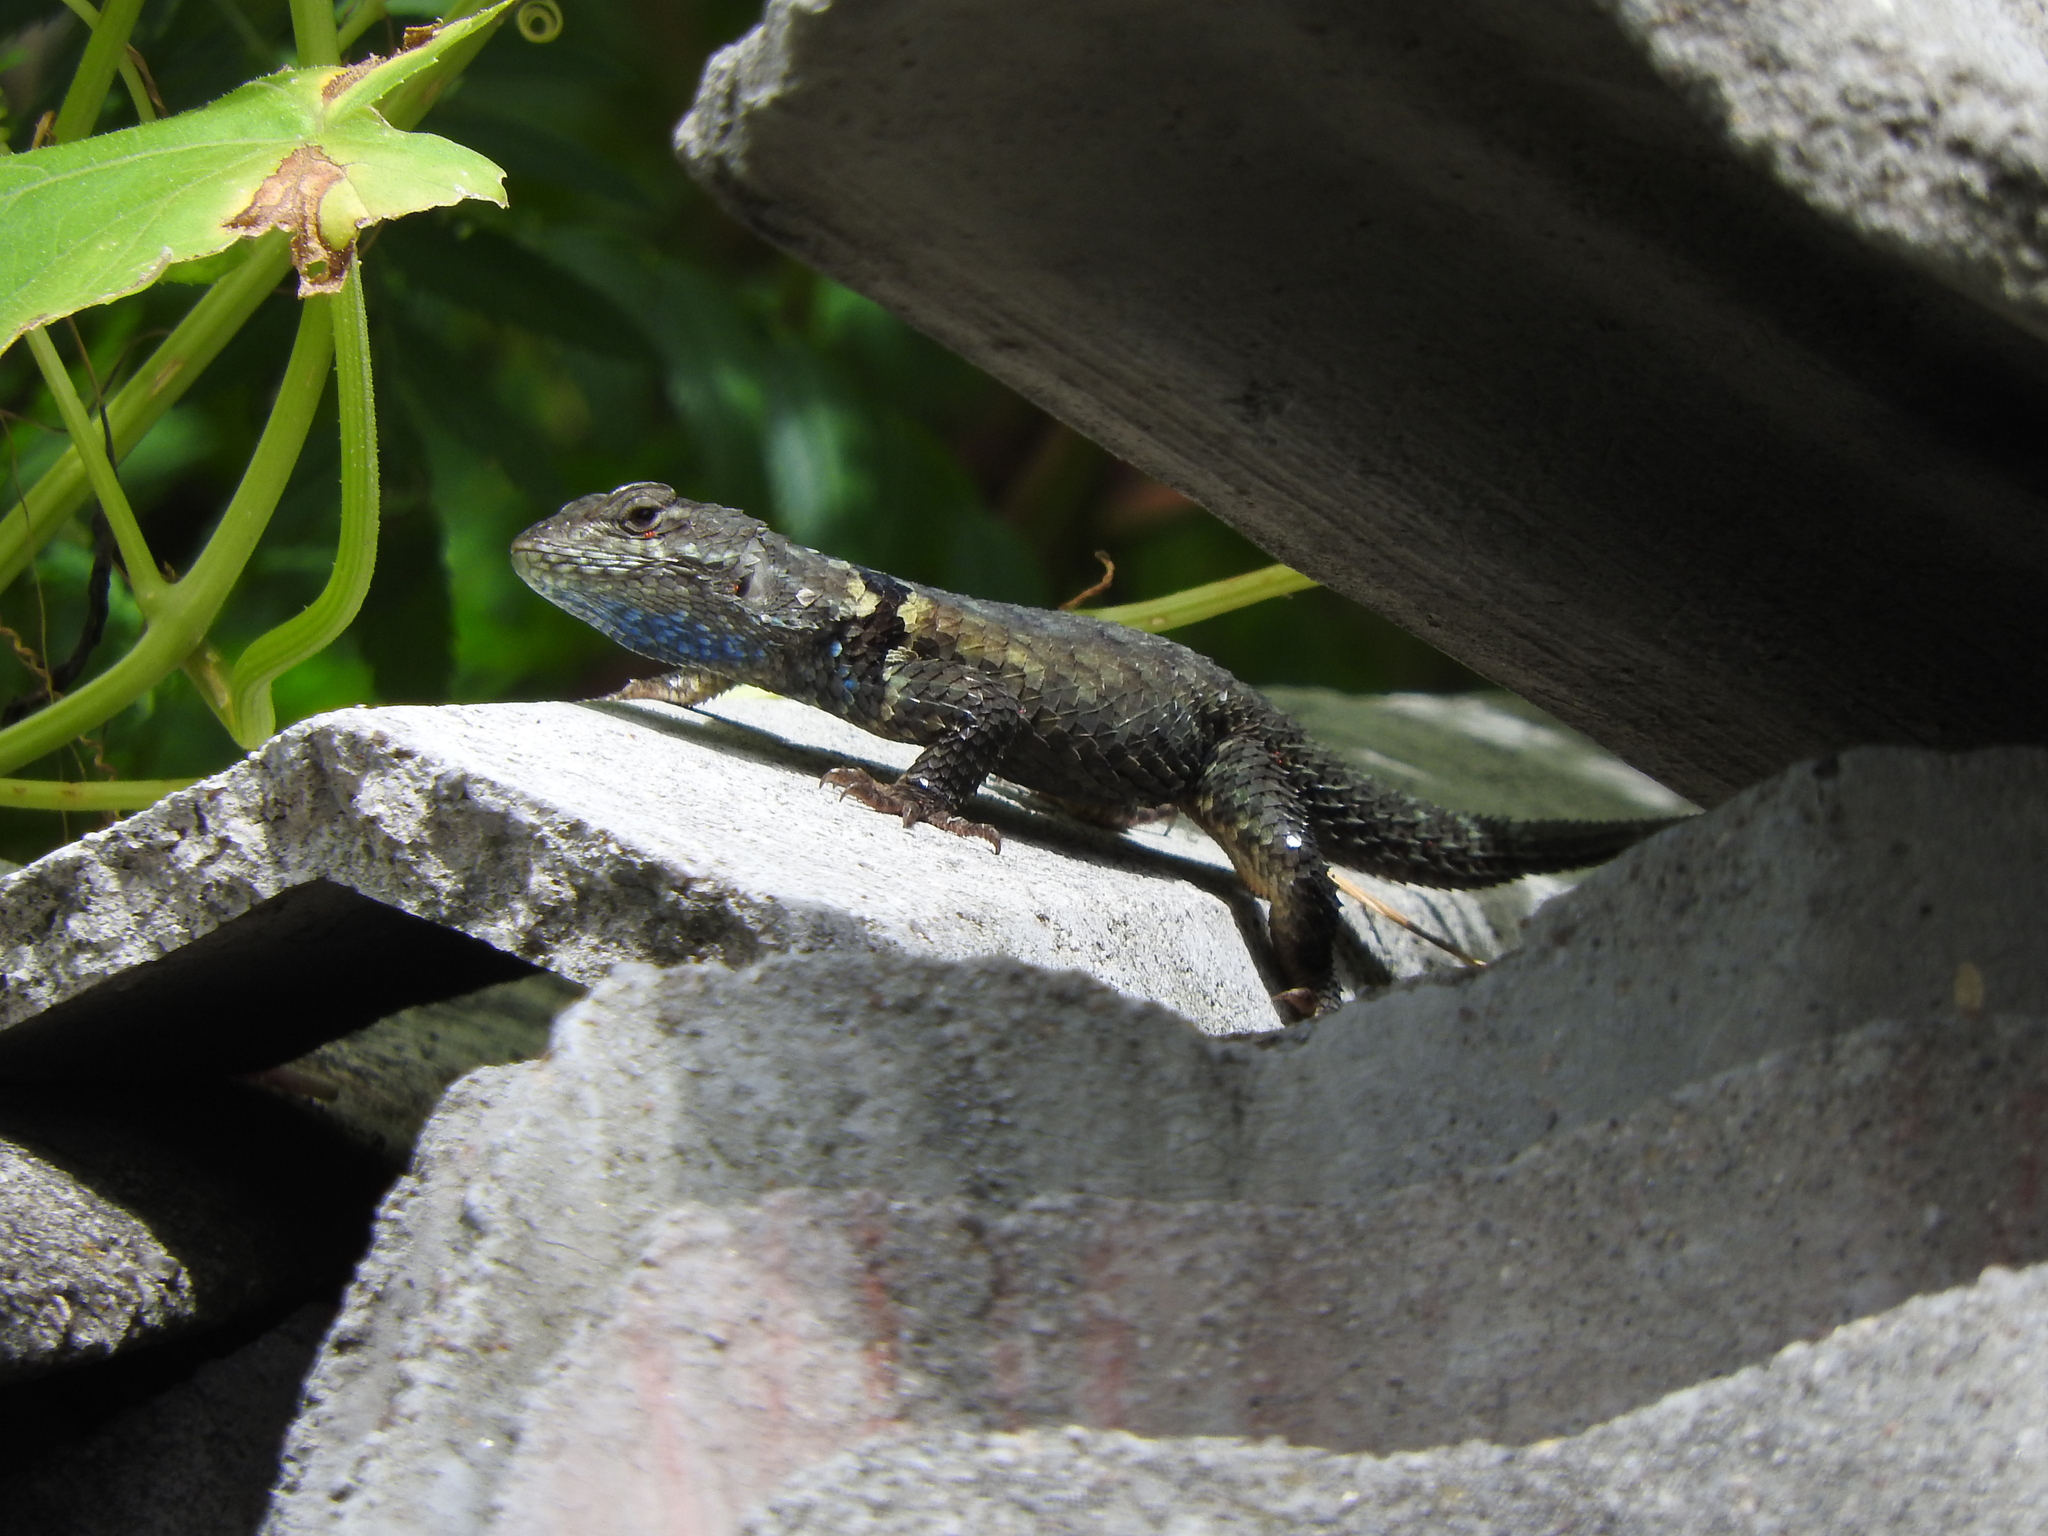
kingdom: Animalia
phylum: Chordata
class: Squamata
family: Phrynosomatidae
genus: Sceloporus
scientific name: Sceloporus torquatus
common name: Central plateau torquate lizard [melanogaster]
